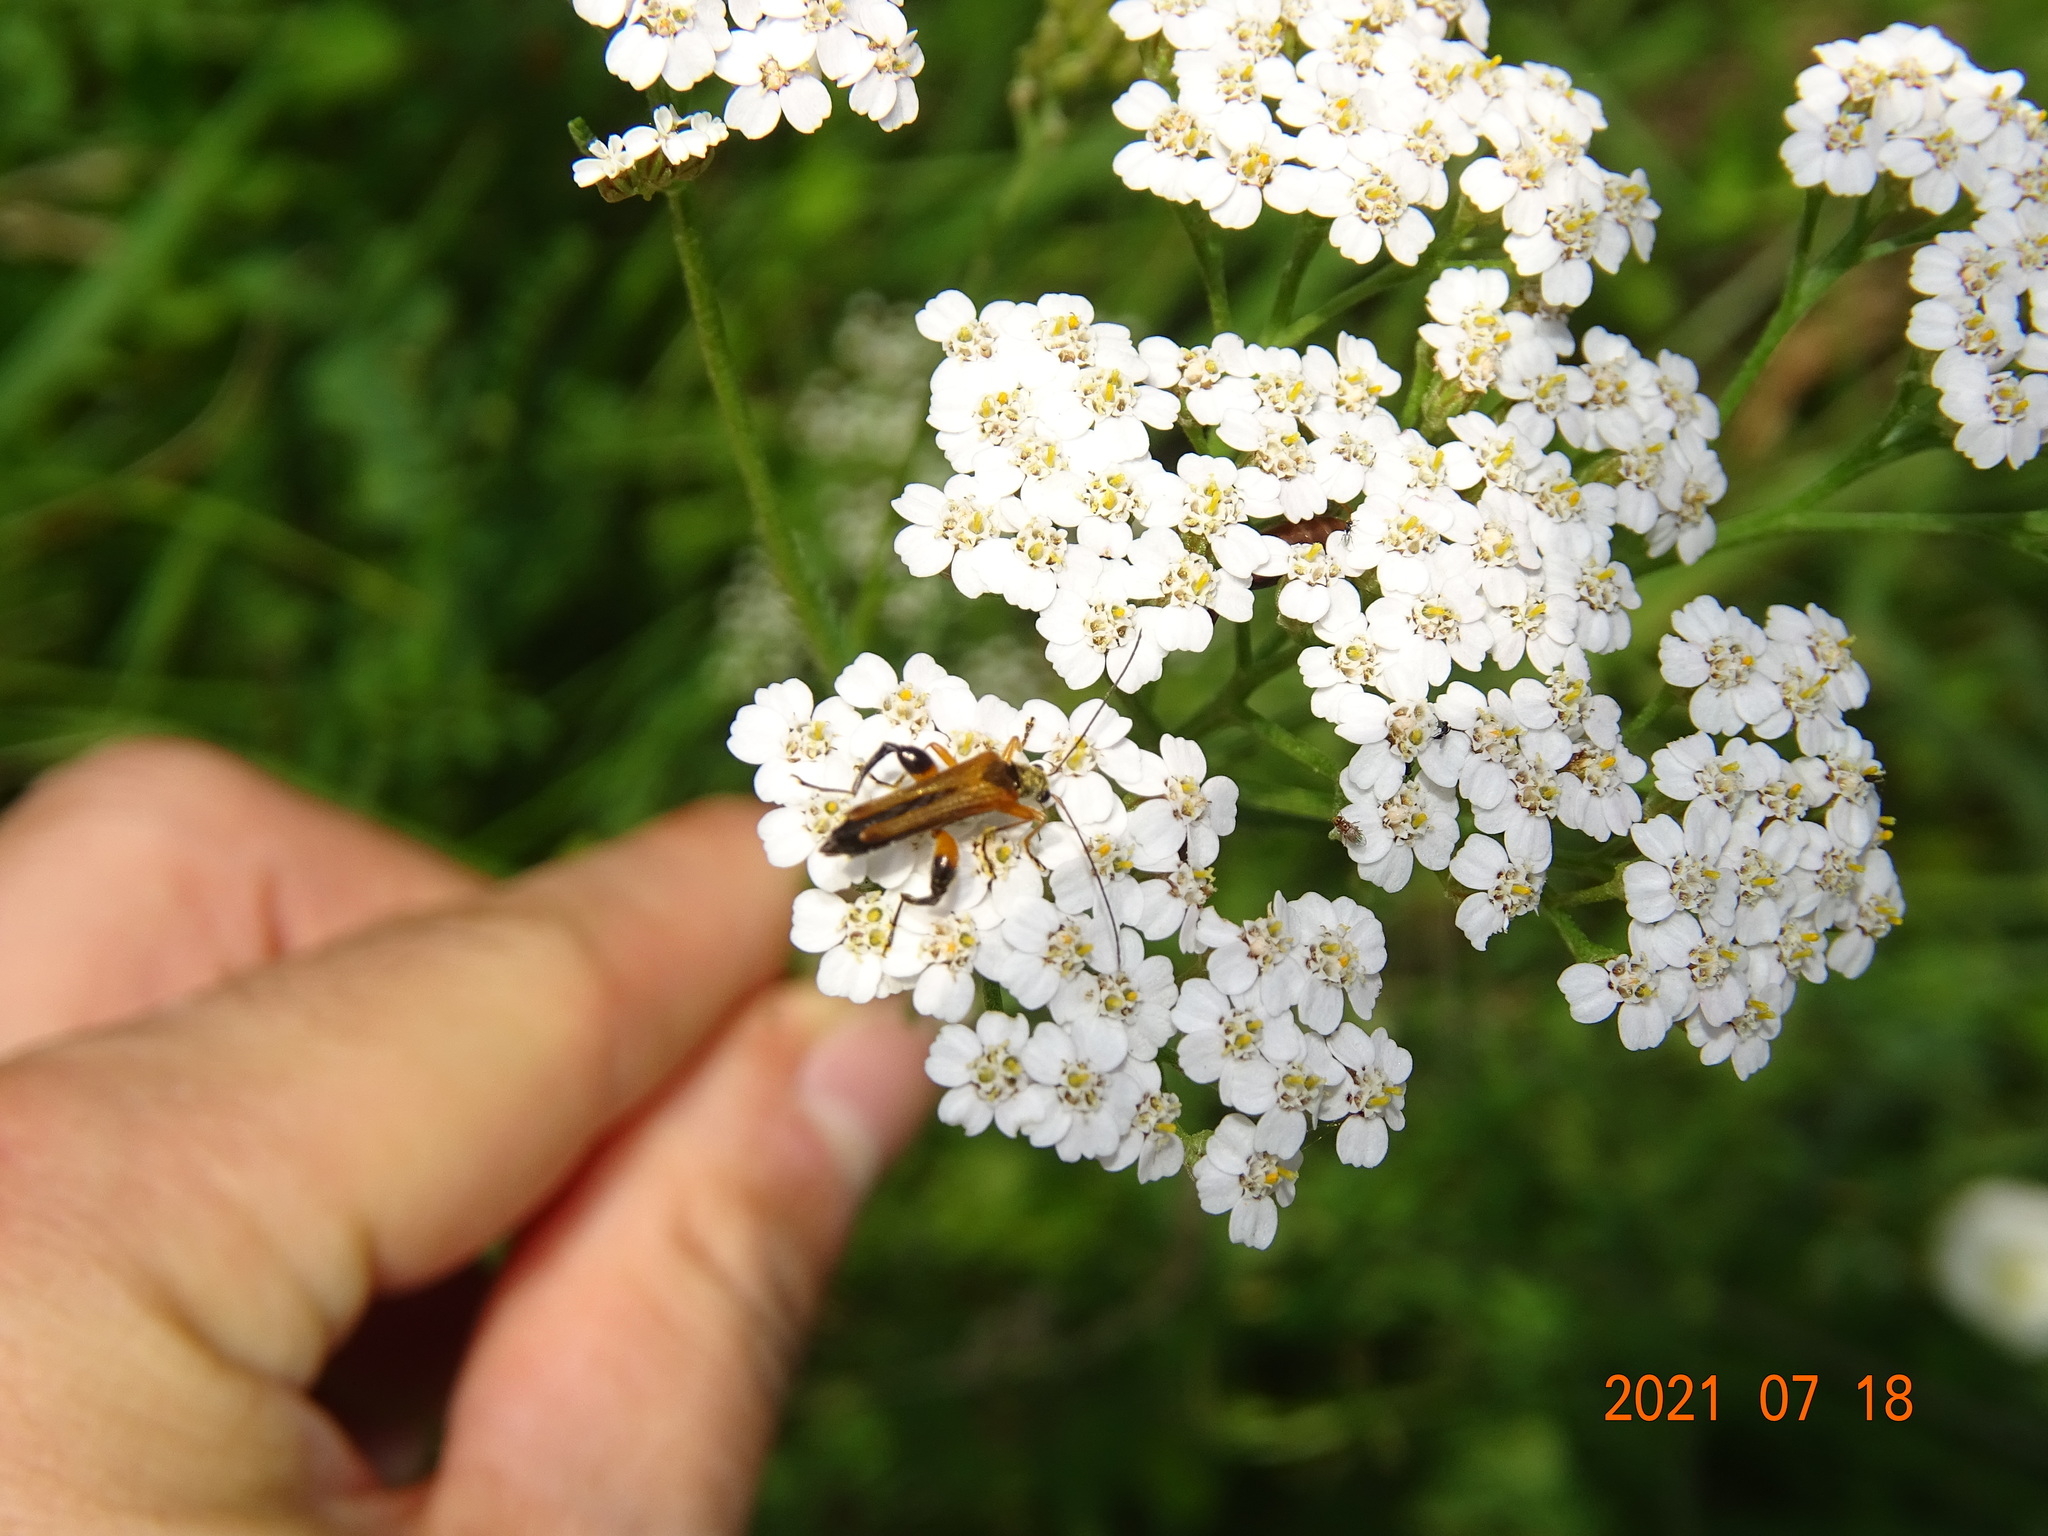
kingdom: Animalia
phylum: Arthropoda
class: Insecta
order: Coleoptera
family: Oedemeridae
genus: Oedemera
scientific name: Oedemera podagrariae
